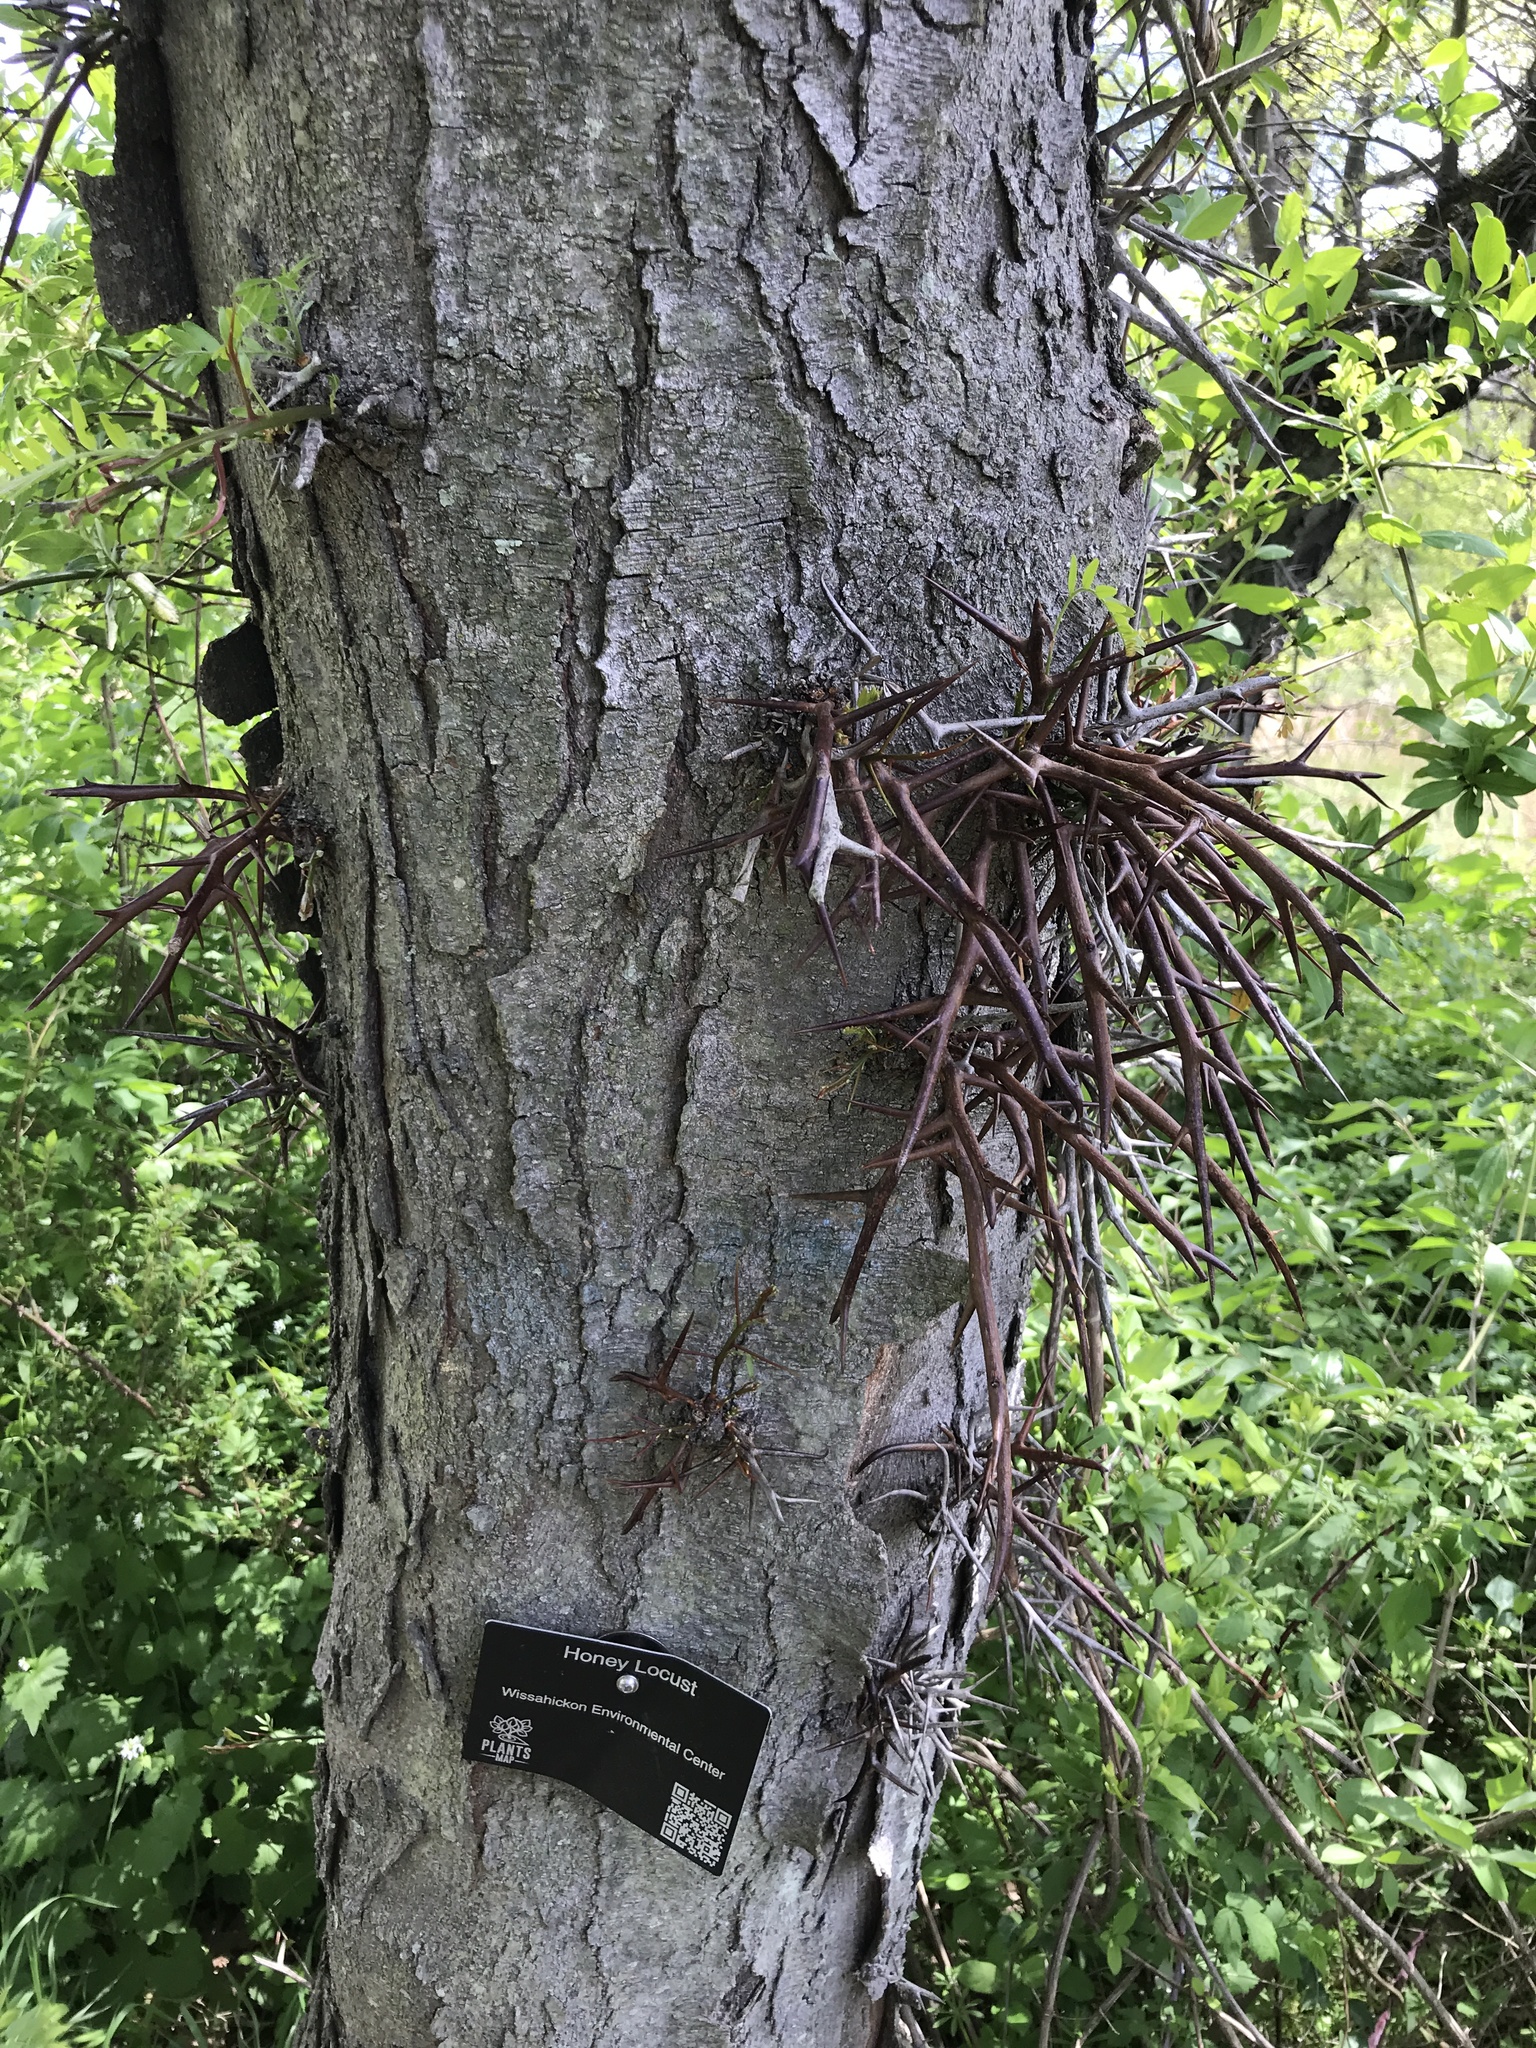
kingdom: Plantae
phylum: Tracheophyta
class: Magnoliopsida
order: Fabales
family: Fabaceae
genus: Gleditsia
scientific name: Gleditsia triacanthos
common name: Common honeylocust
